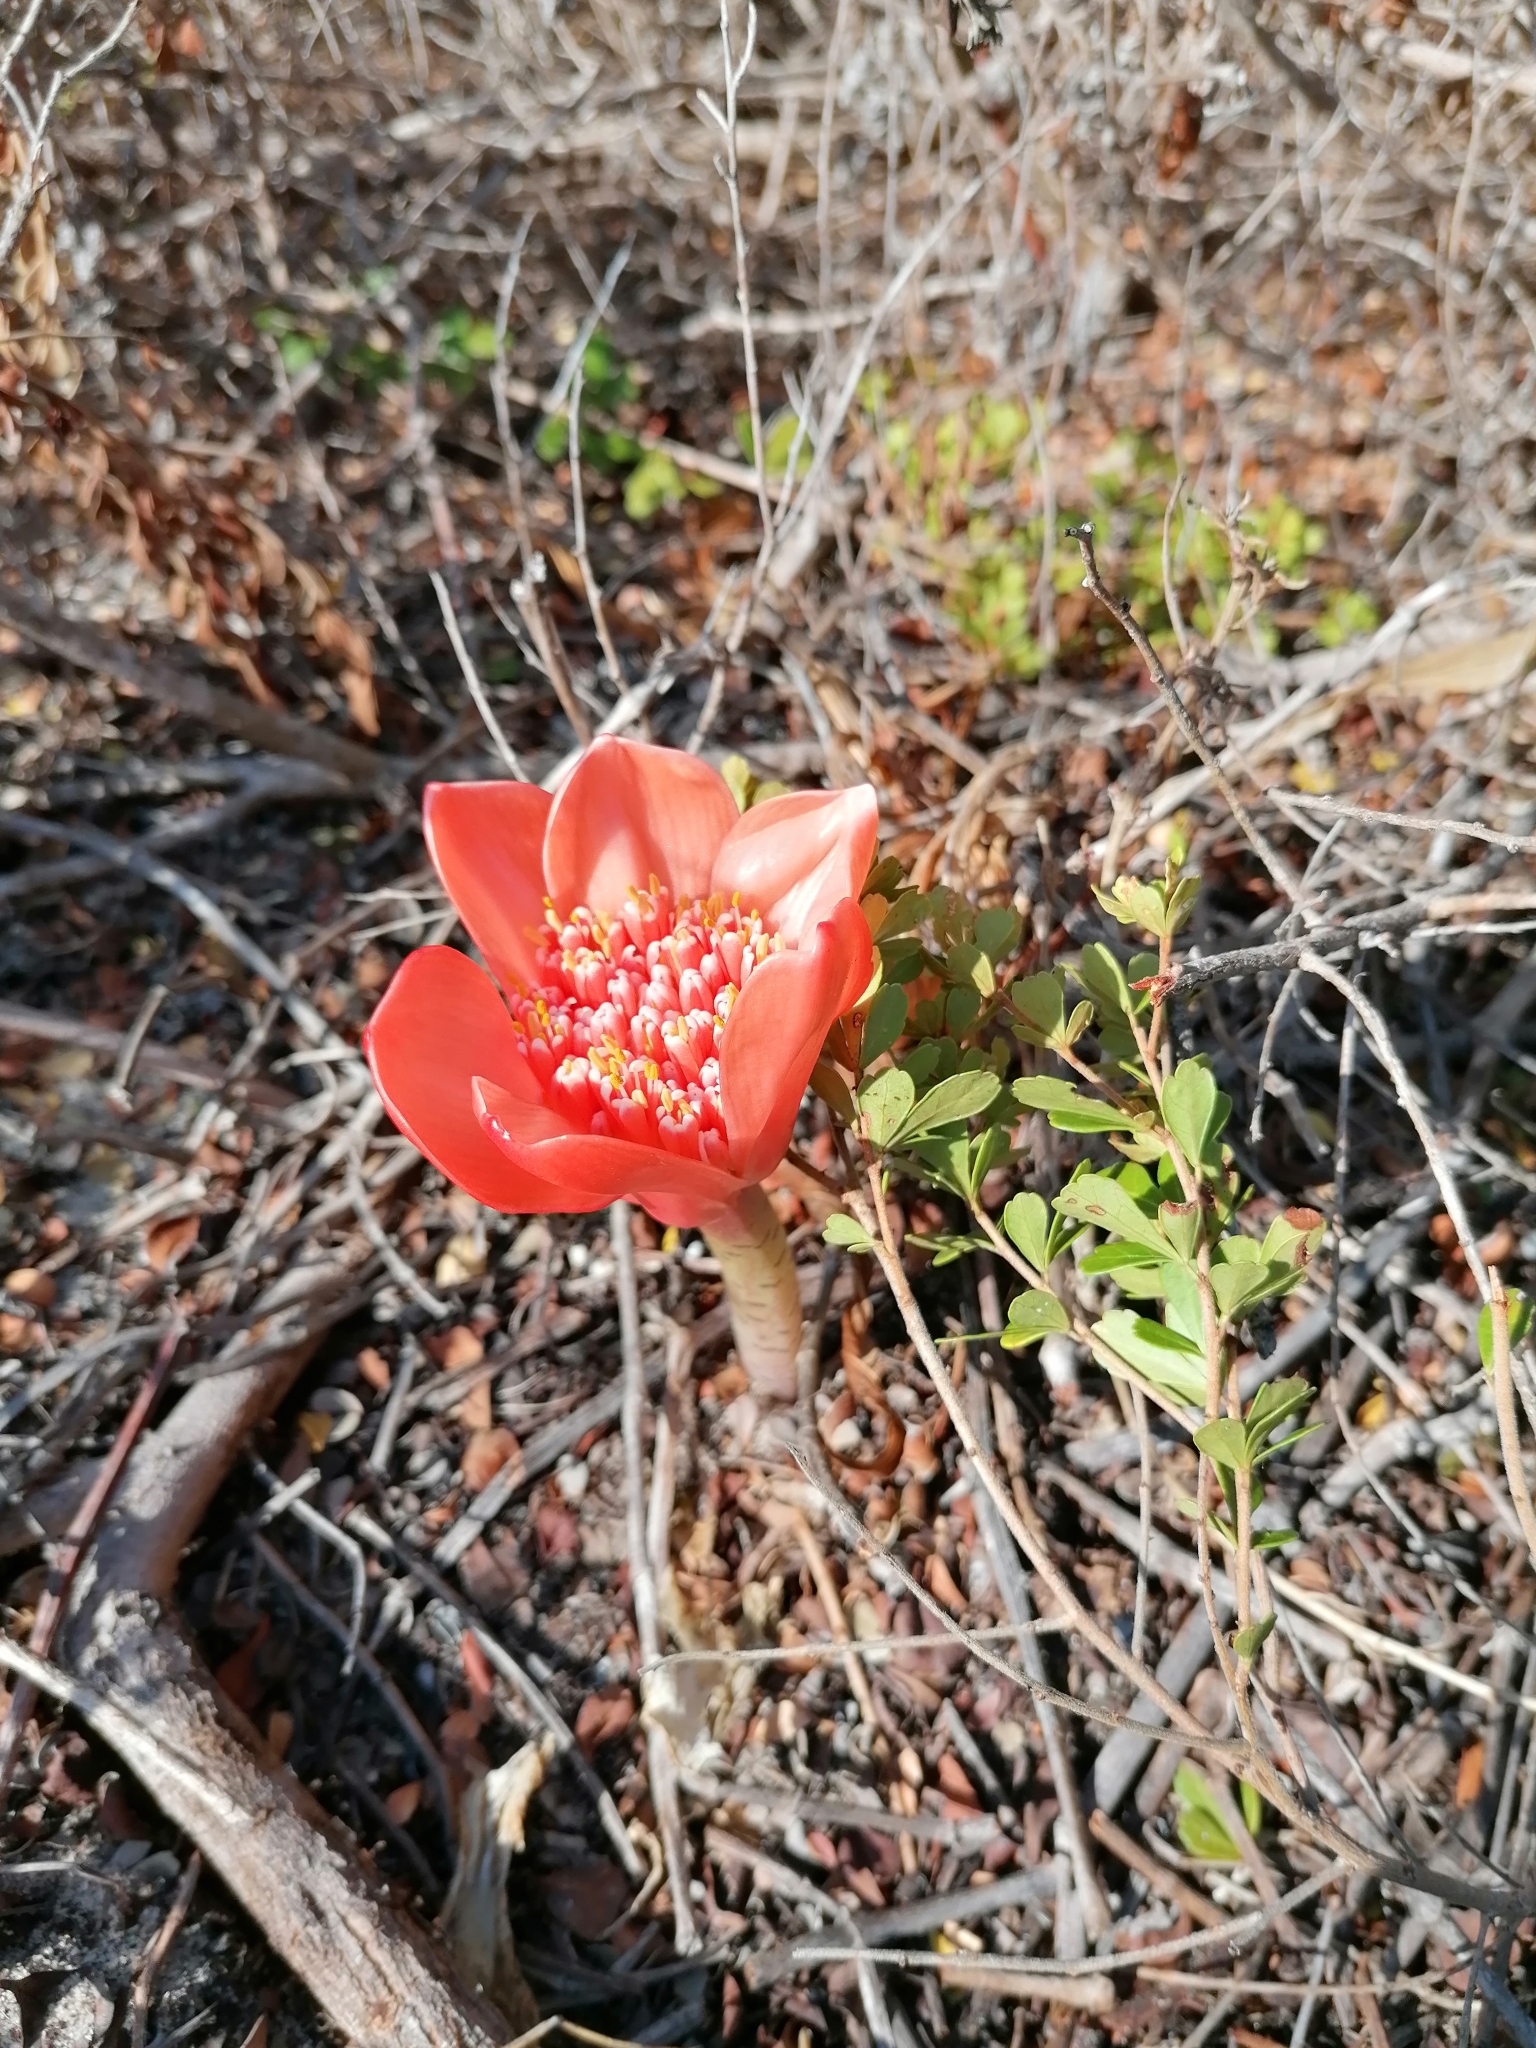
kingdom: Plantae
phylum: Tracheophyta
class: Liliopsida
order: Asparagales
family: Amaryllidaceae
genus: Haemanthus
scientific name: Haemanthus coccineus
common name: Cape-tulip
